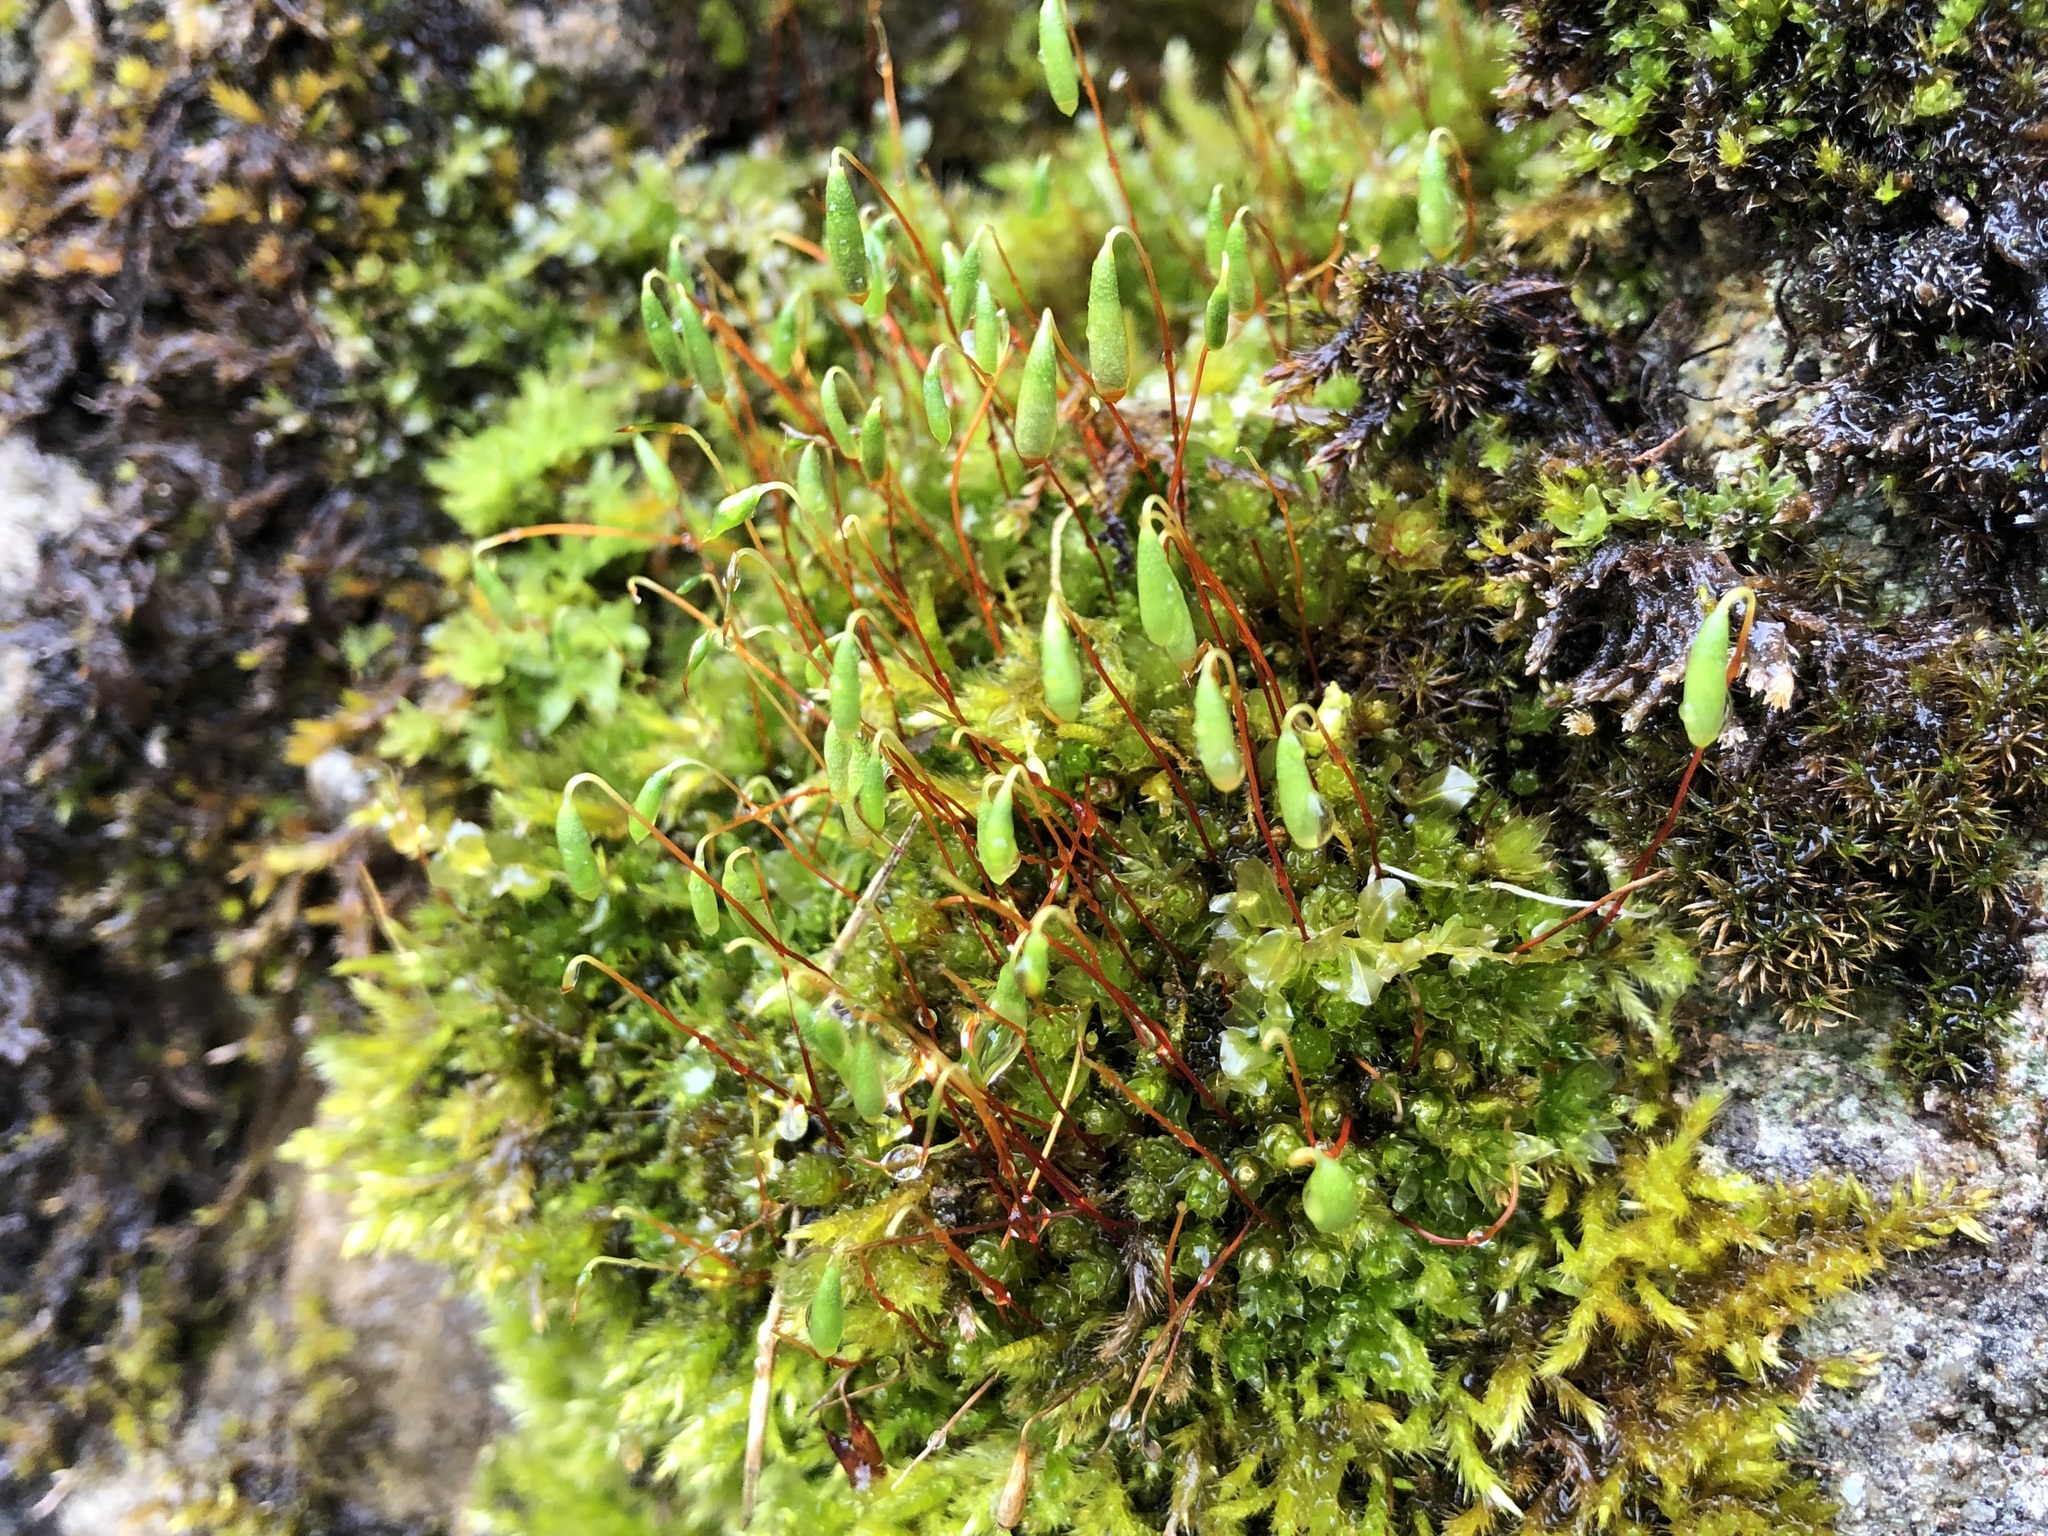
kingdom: Plantae
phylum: Bryophyta
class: Bryopsida
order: Bryales
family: Bryaceae
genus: Rosulabryum
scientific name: Rosulabryum capillare
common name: Capillary thread-moss
